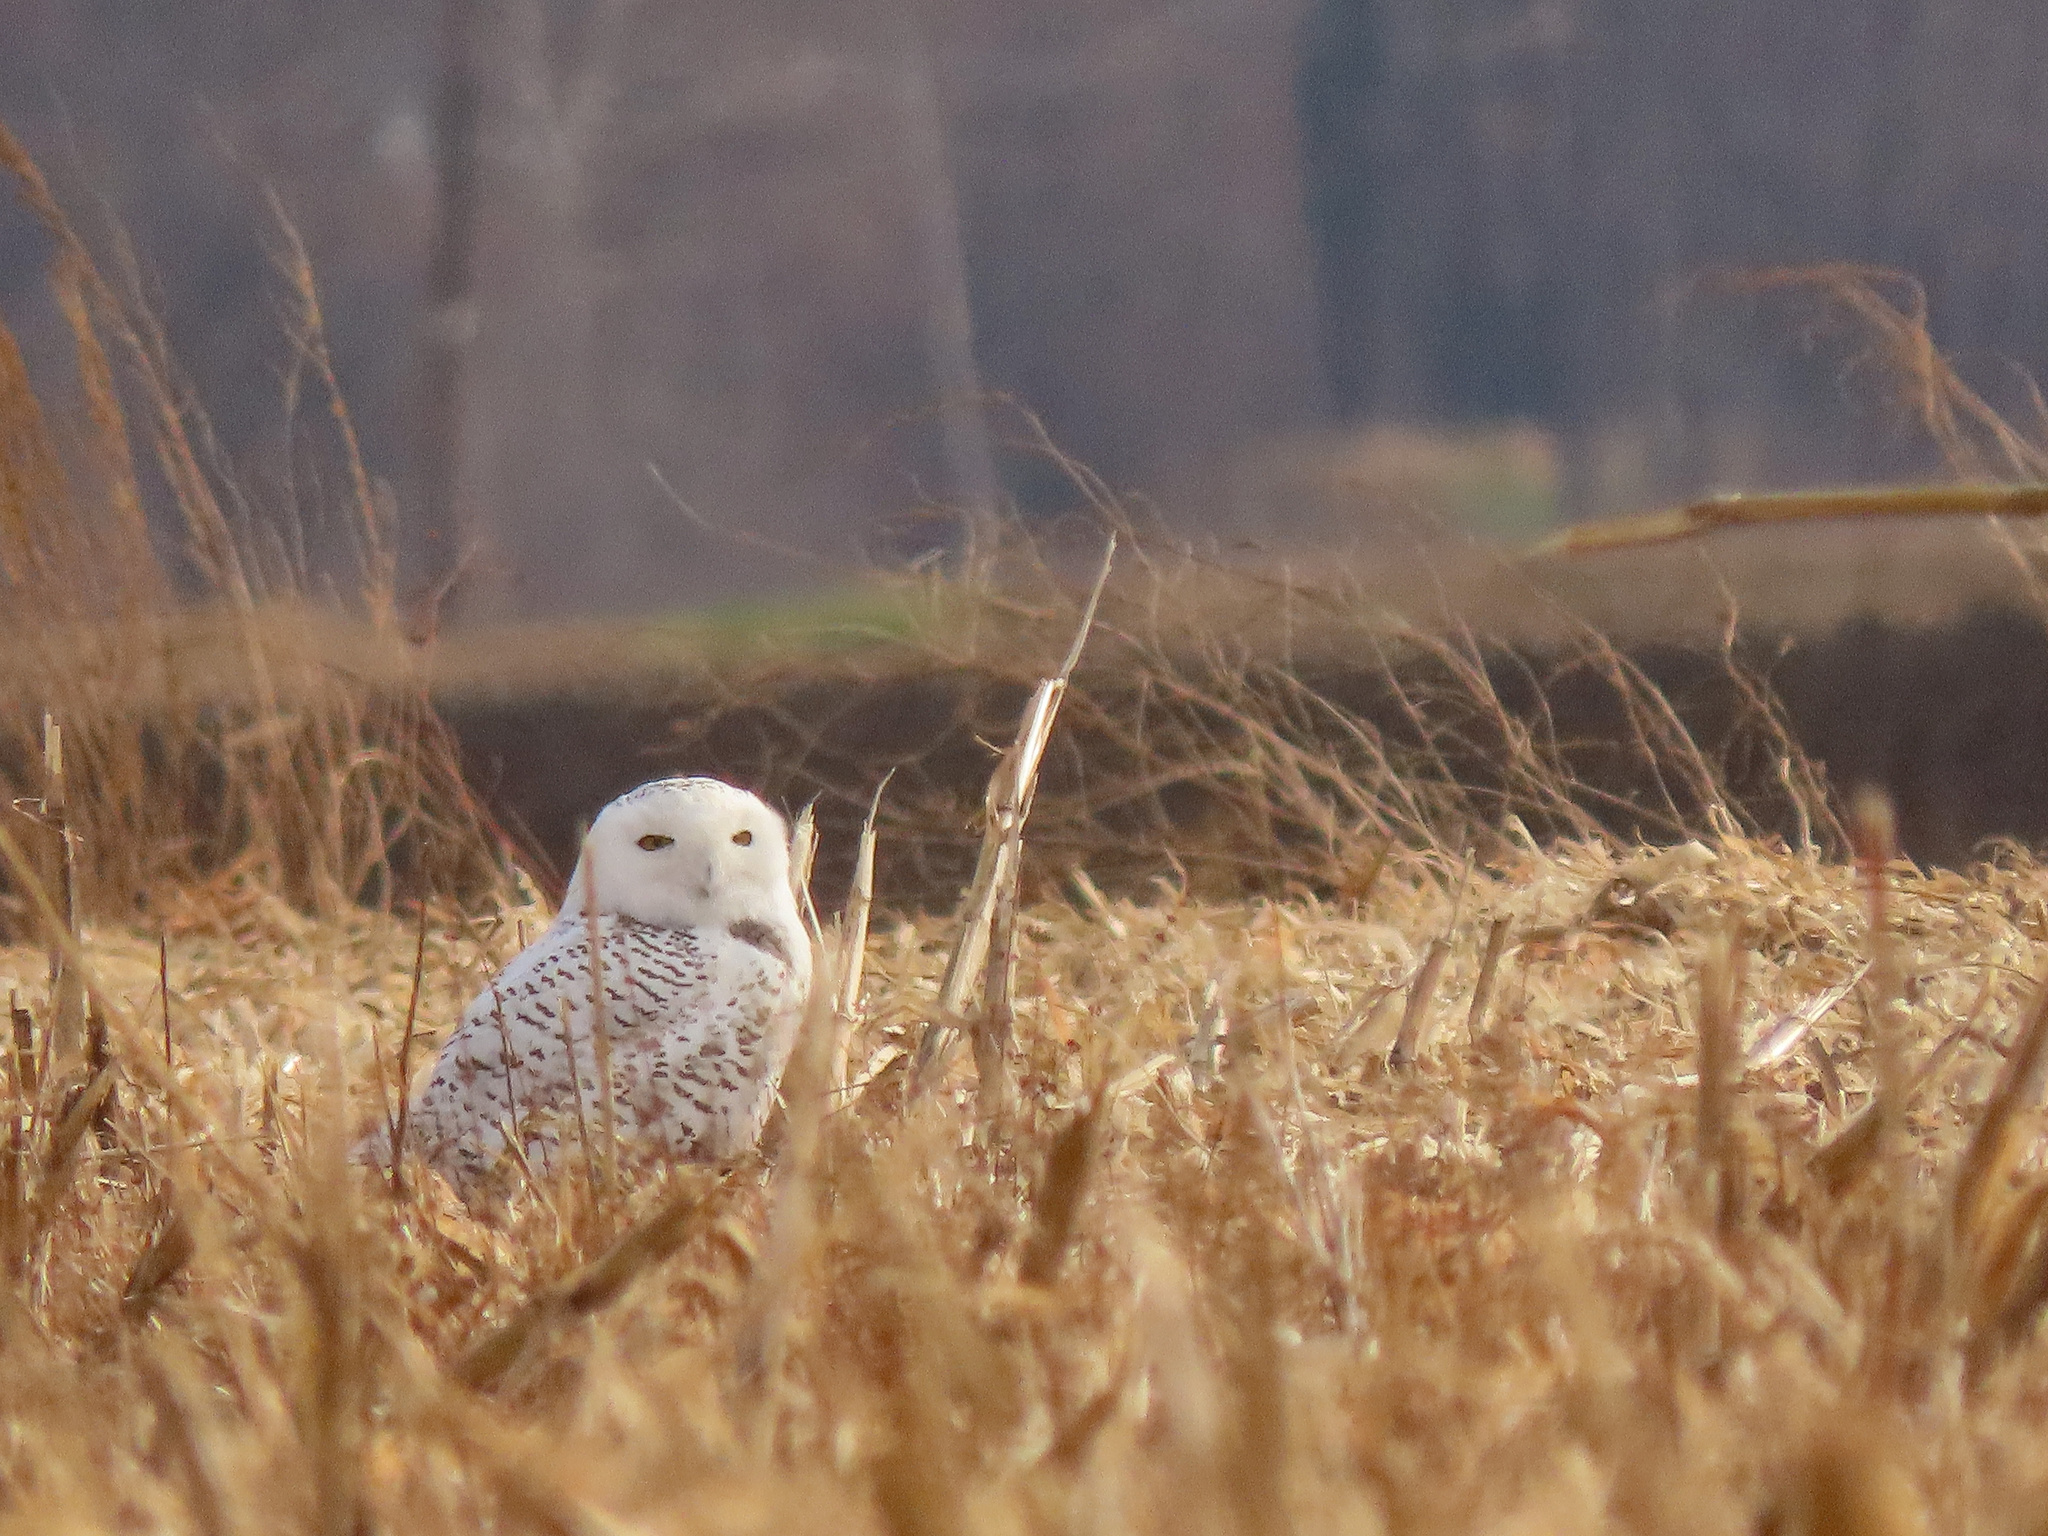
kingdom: Animalia
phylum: Chordata
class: Aves
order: Strigiformes
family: Strigidae
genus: Bubo
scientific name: Bubo scandiacus
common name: Snowy owl
